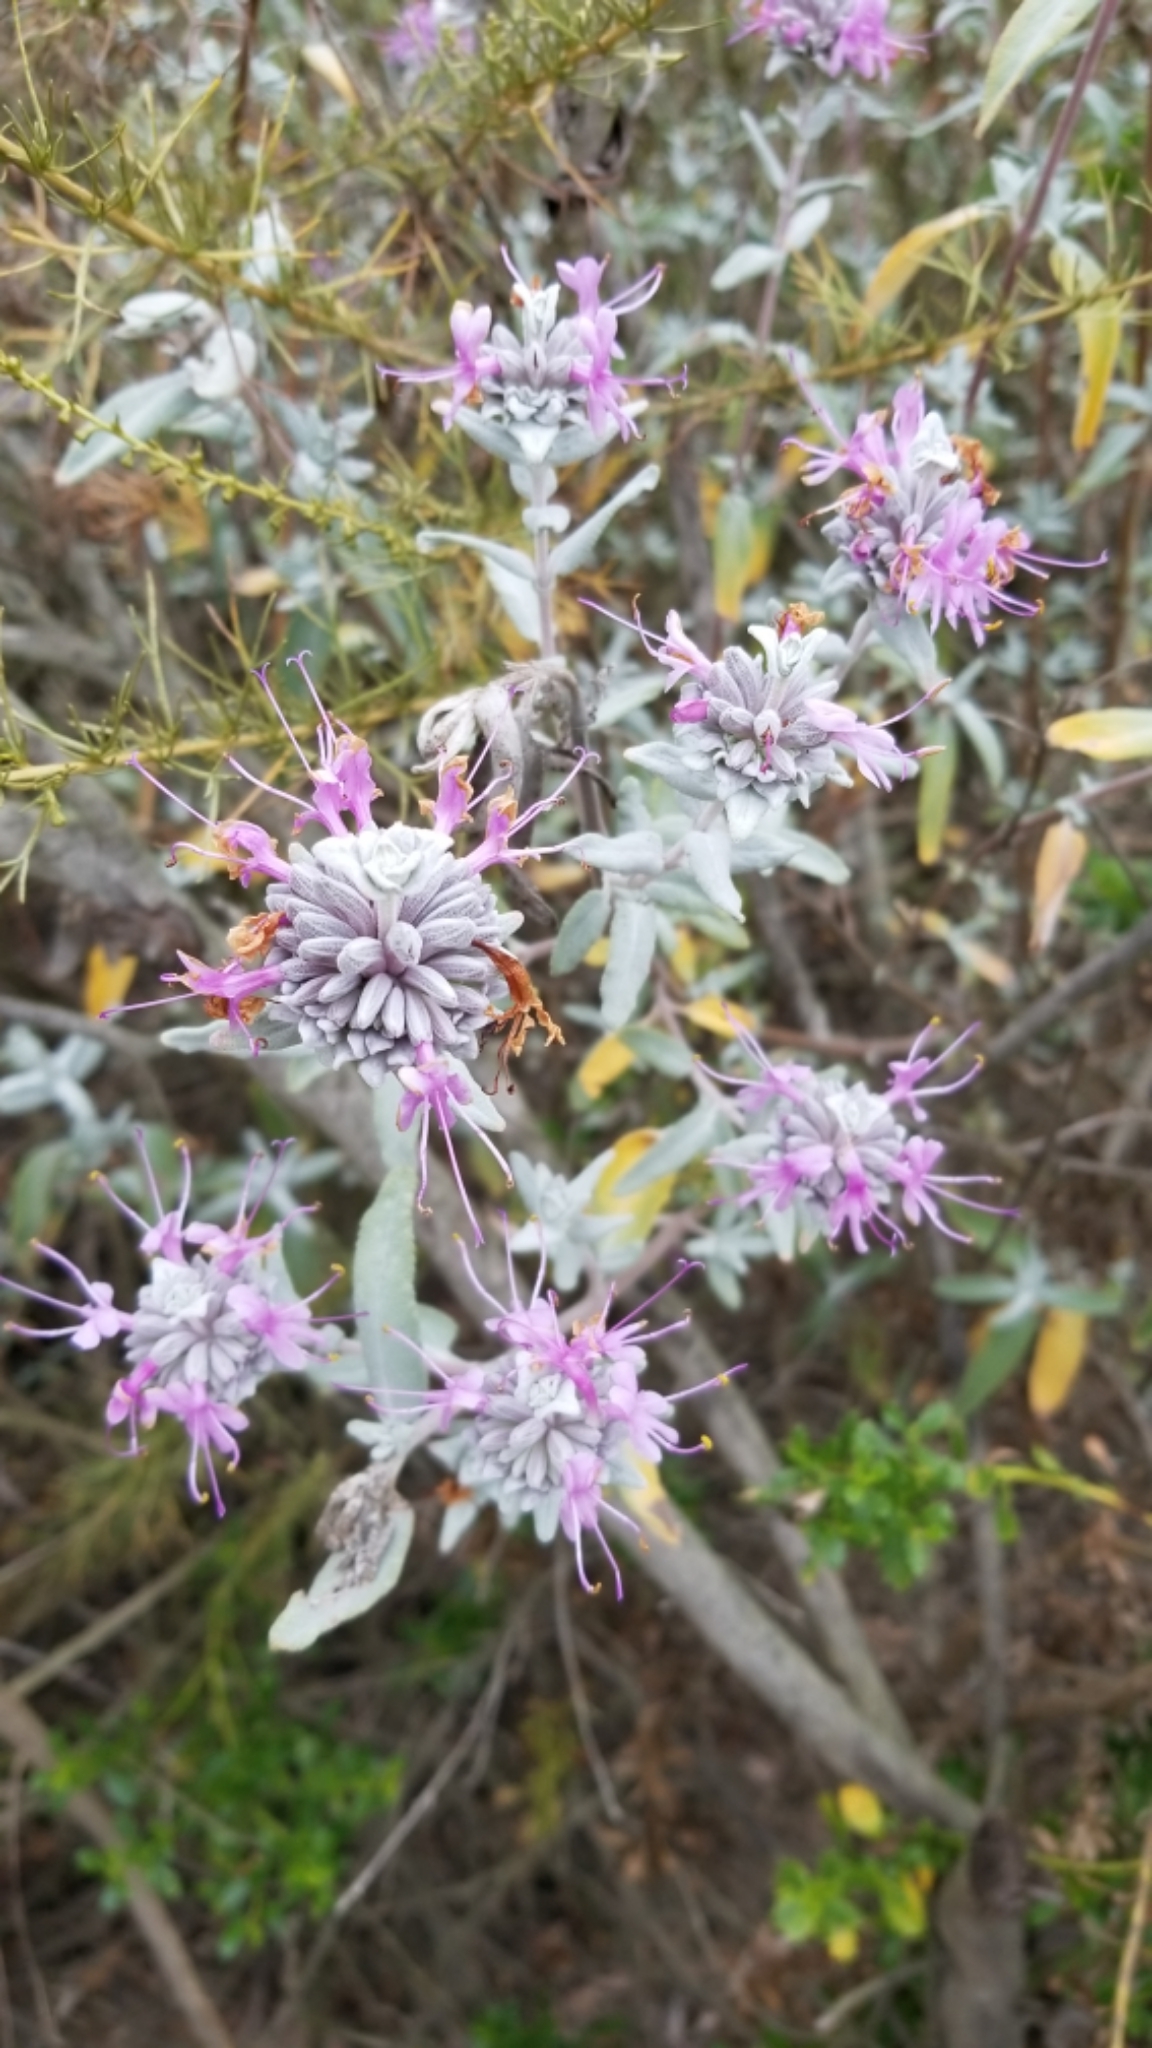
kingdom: Plantae
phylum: Tracheophyta
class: Magnoliopsida
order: Lamiales
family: Lamiaceae
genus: Salvia
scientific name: Salvia leucophylla
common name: Purple sage
